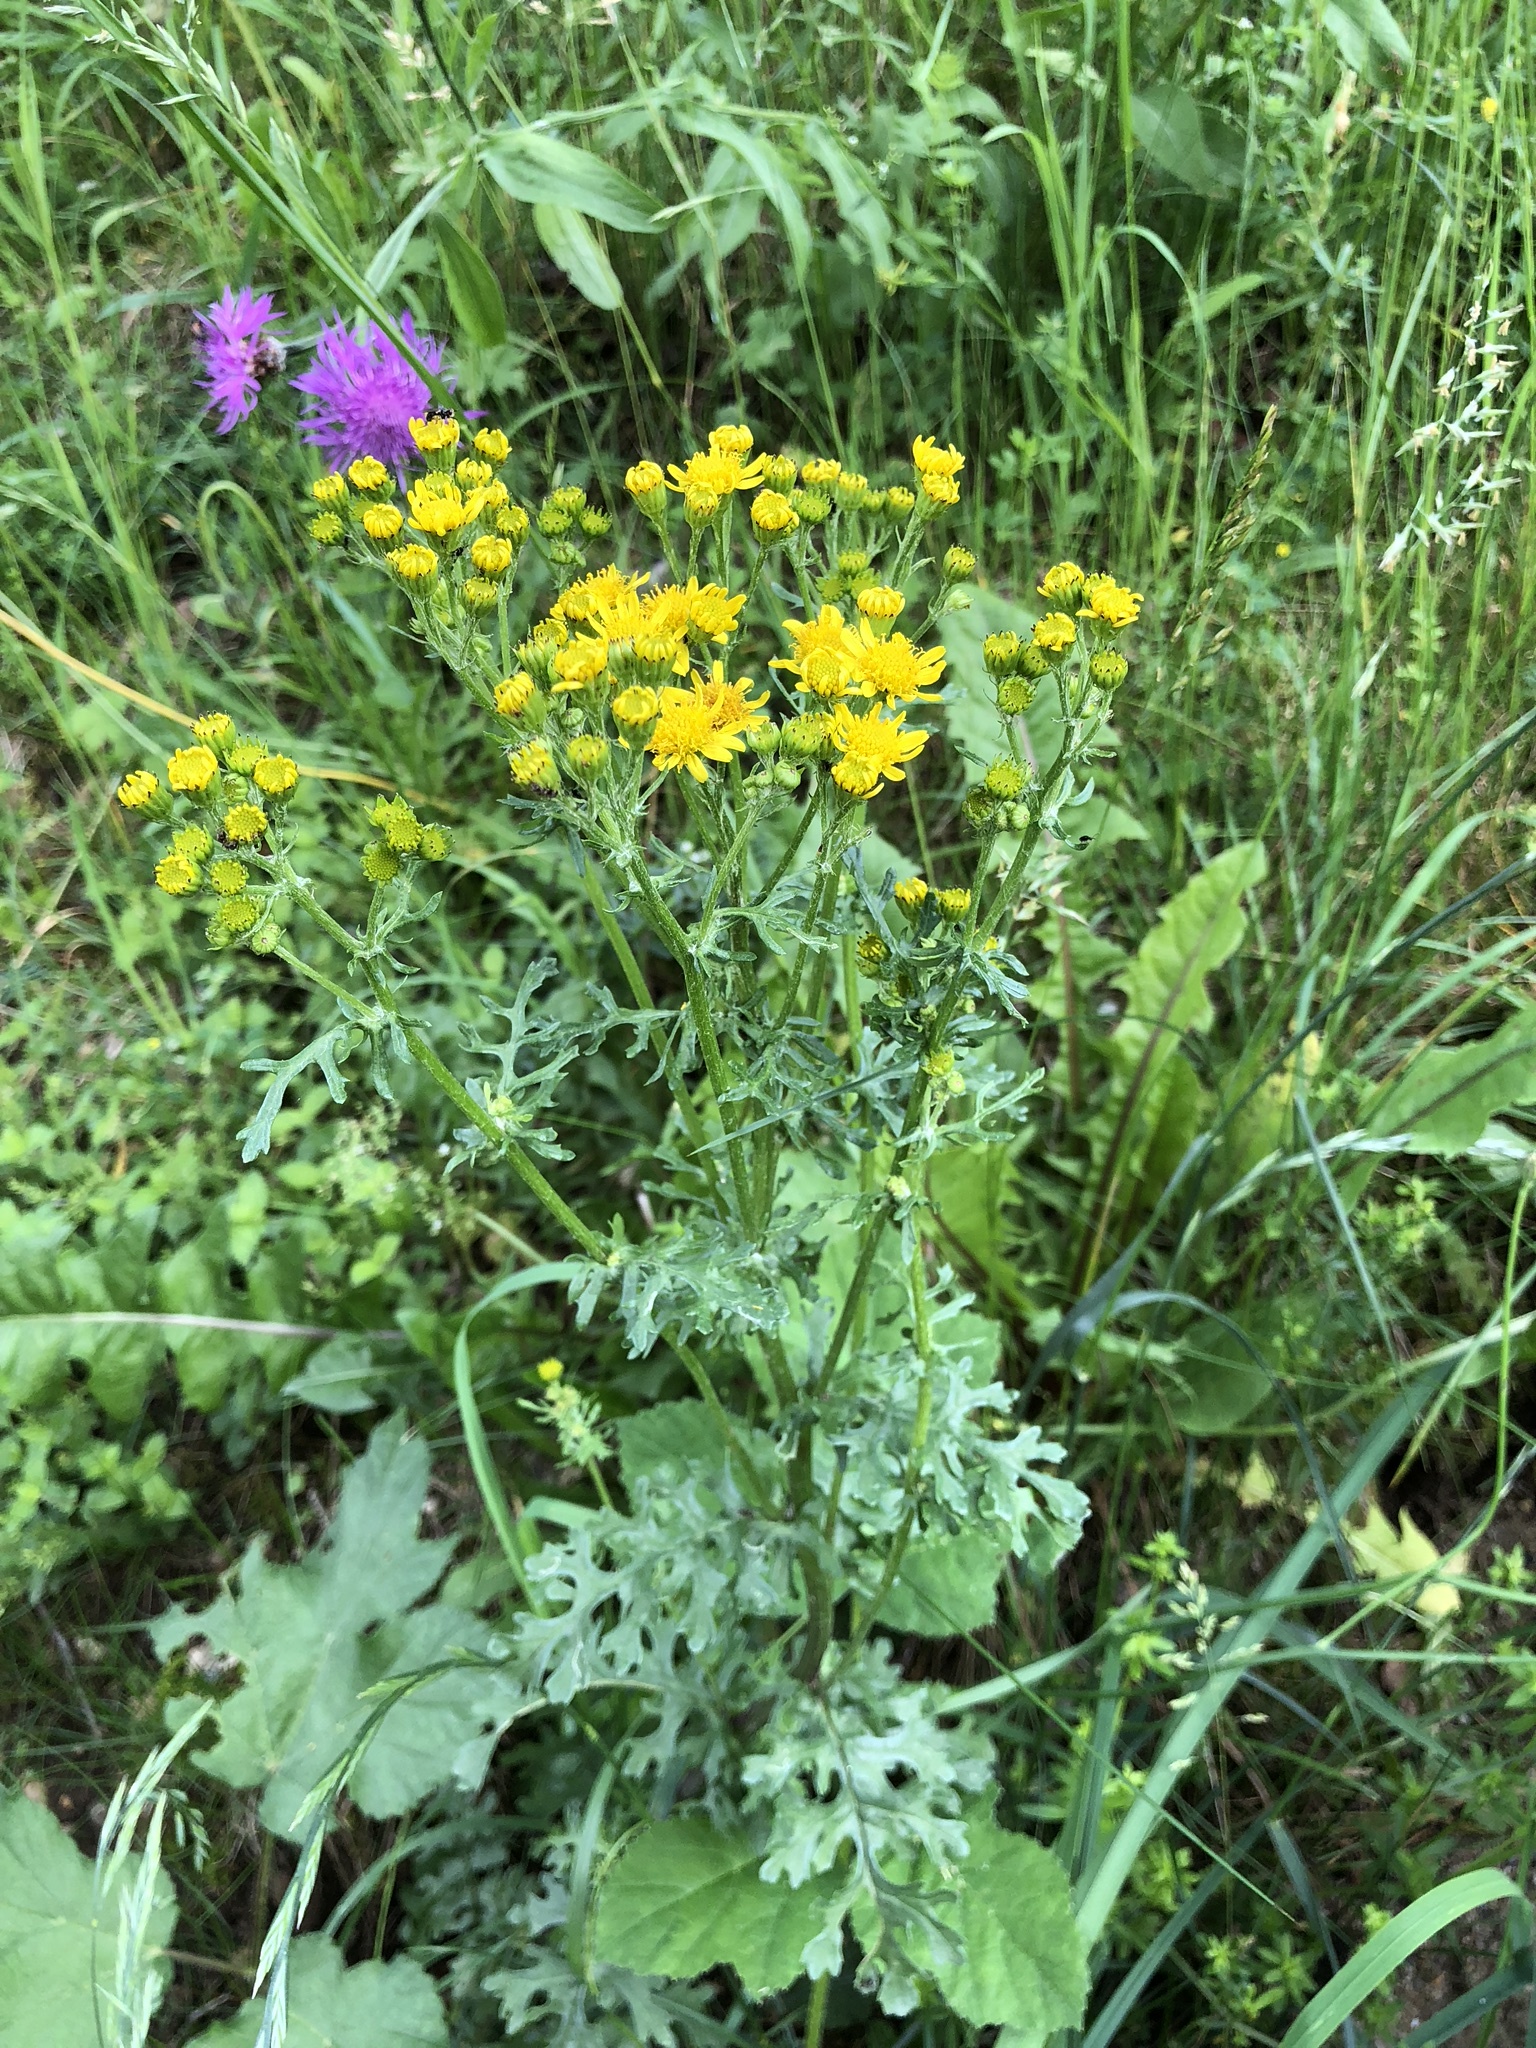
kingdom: Plantae
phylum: Tracheophyta
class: Magnoliopsida
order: Asterales
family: Asteraceae
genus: Jacobaea
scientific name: Jacobaea vulgaris
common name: Stinking willie
